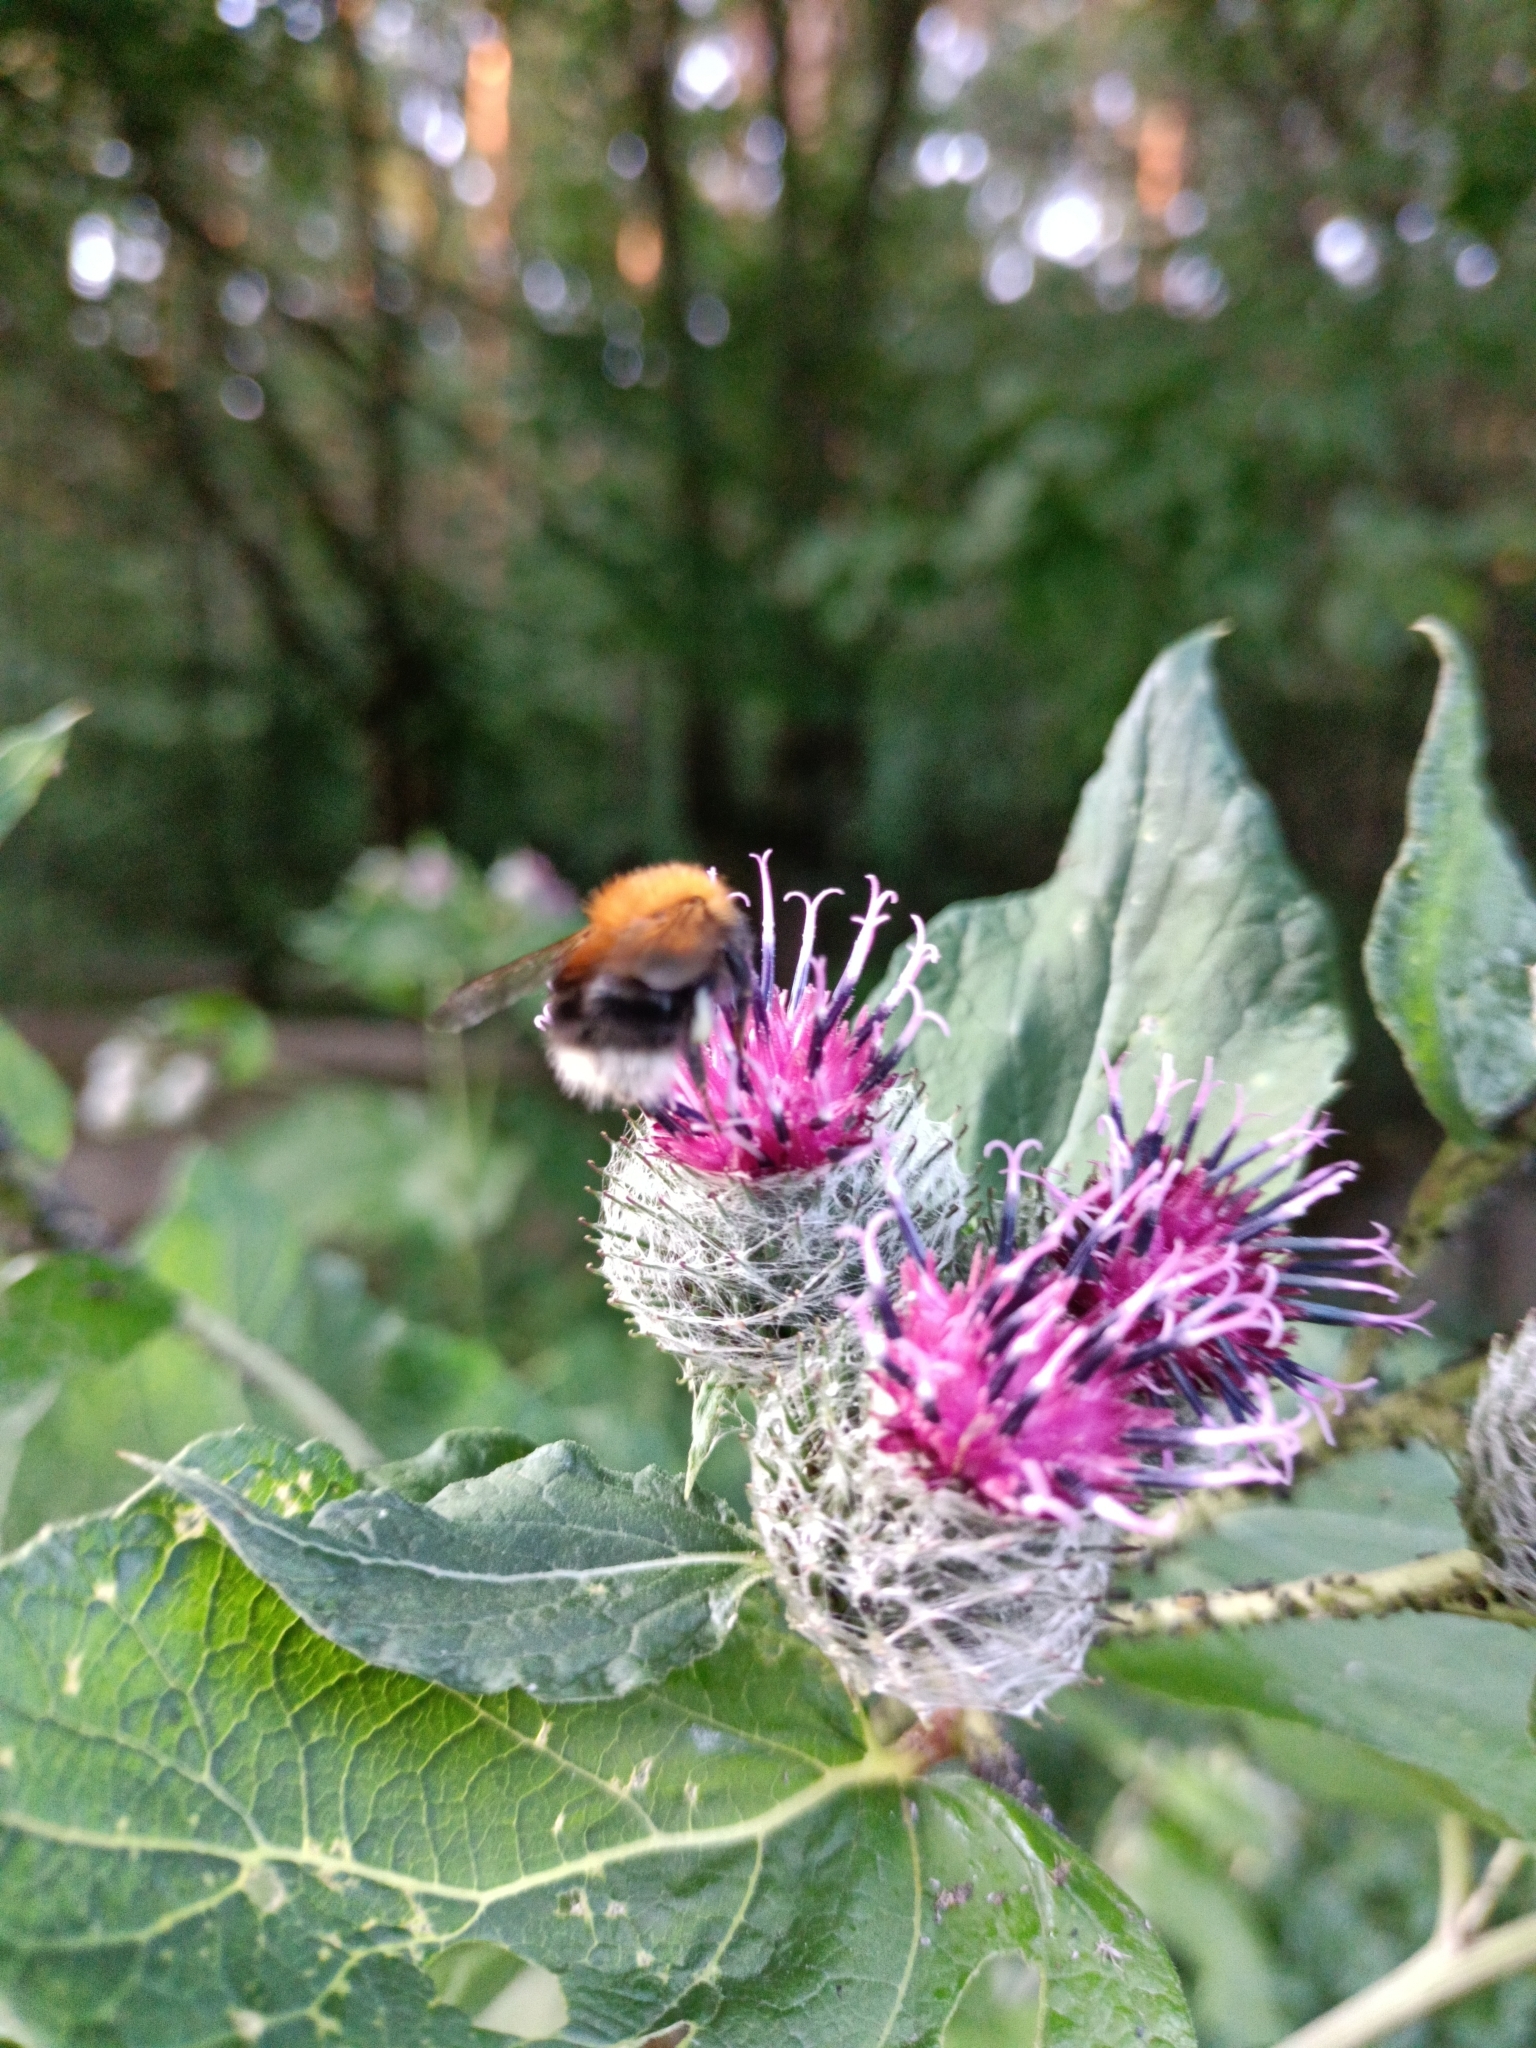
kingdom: Animalia
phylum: Arthropoda
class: Insecta
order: Hymenoptera
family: Apidae
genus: Bombus
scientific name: Bombus hypnorum
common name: New garden bumblebee
